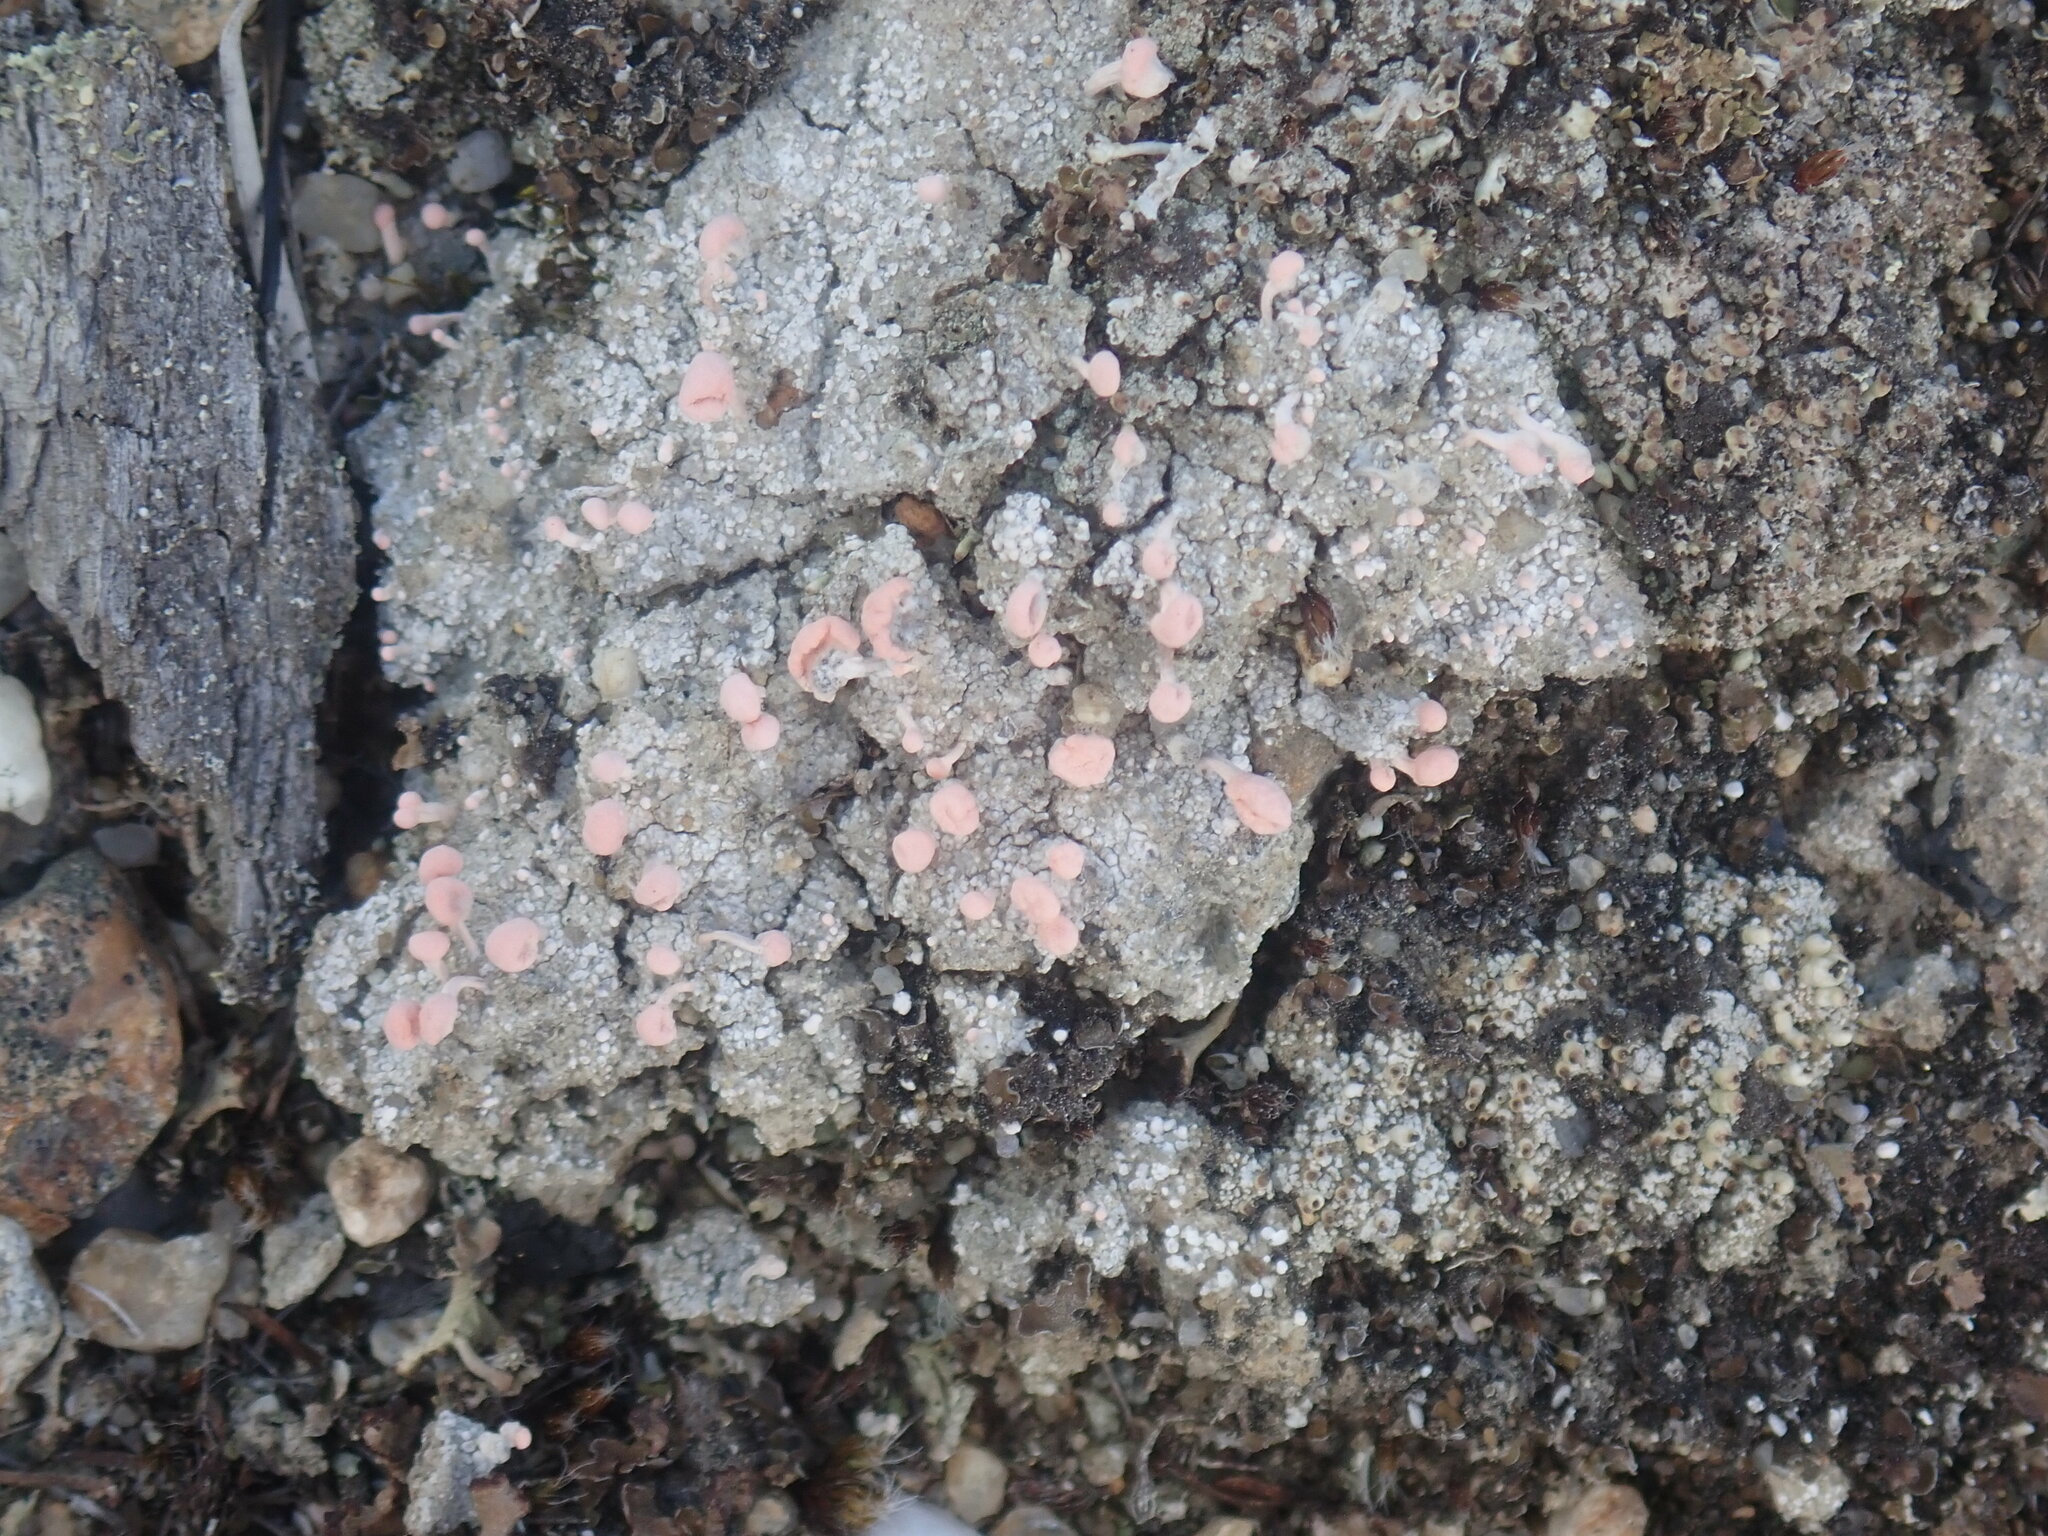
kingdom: Fungi
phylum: Ascomycota
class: Lecanoromycetes
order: Pertusariales
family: Icmadophilaceae
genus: Dibaeis
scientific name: Dibaeis baeomyces
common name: Pink earth lichen
